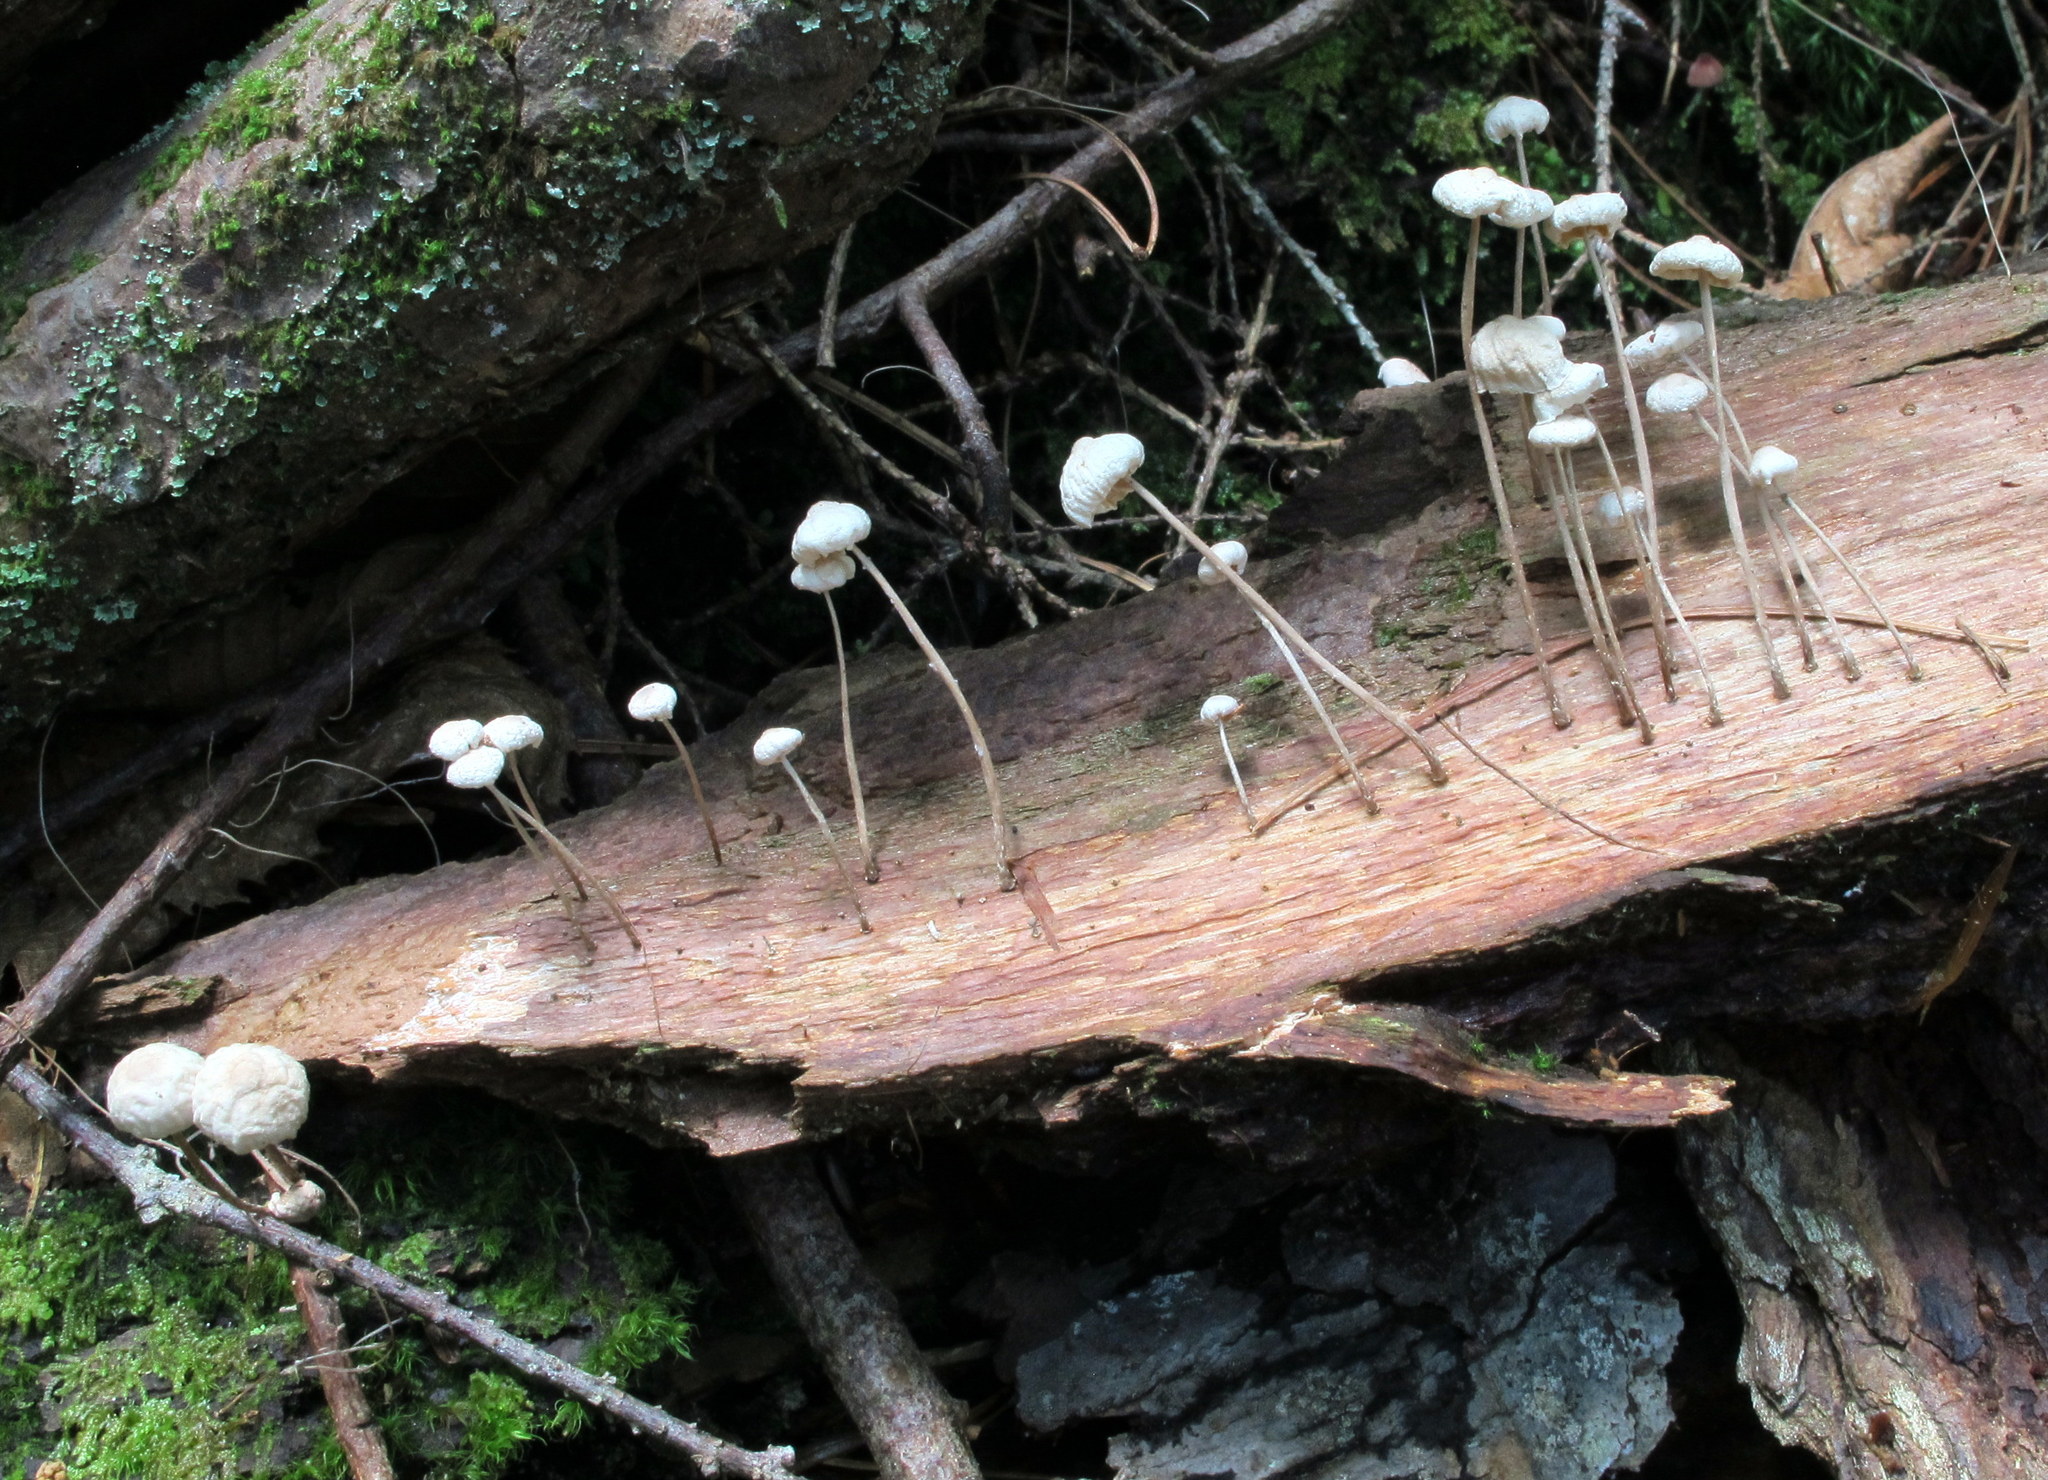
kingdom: Fungi
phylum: Basidiomycota
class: Agaricomycetes
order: Agaricales
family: Omphalotaceae
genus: Mycetinis
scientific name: Mycetinis opacus
